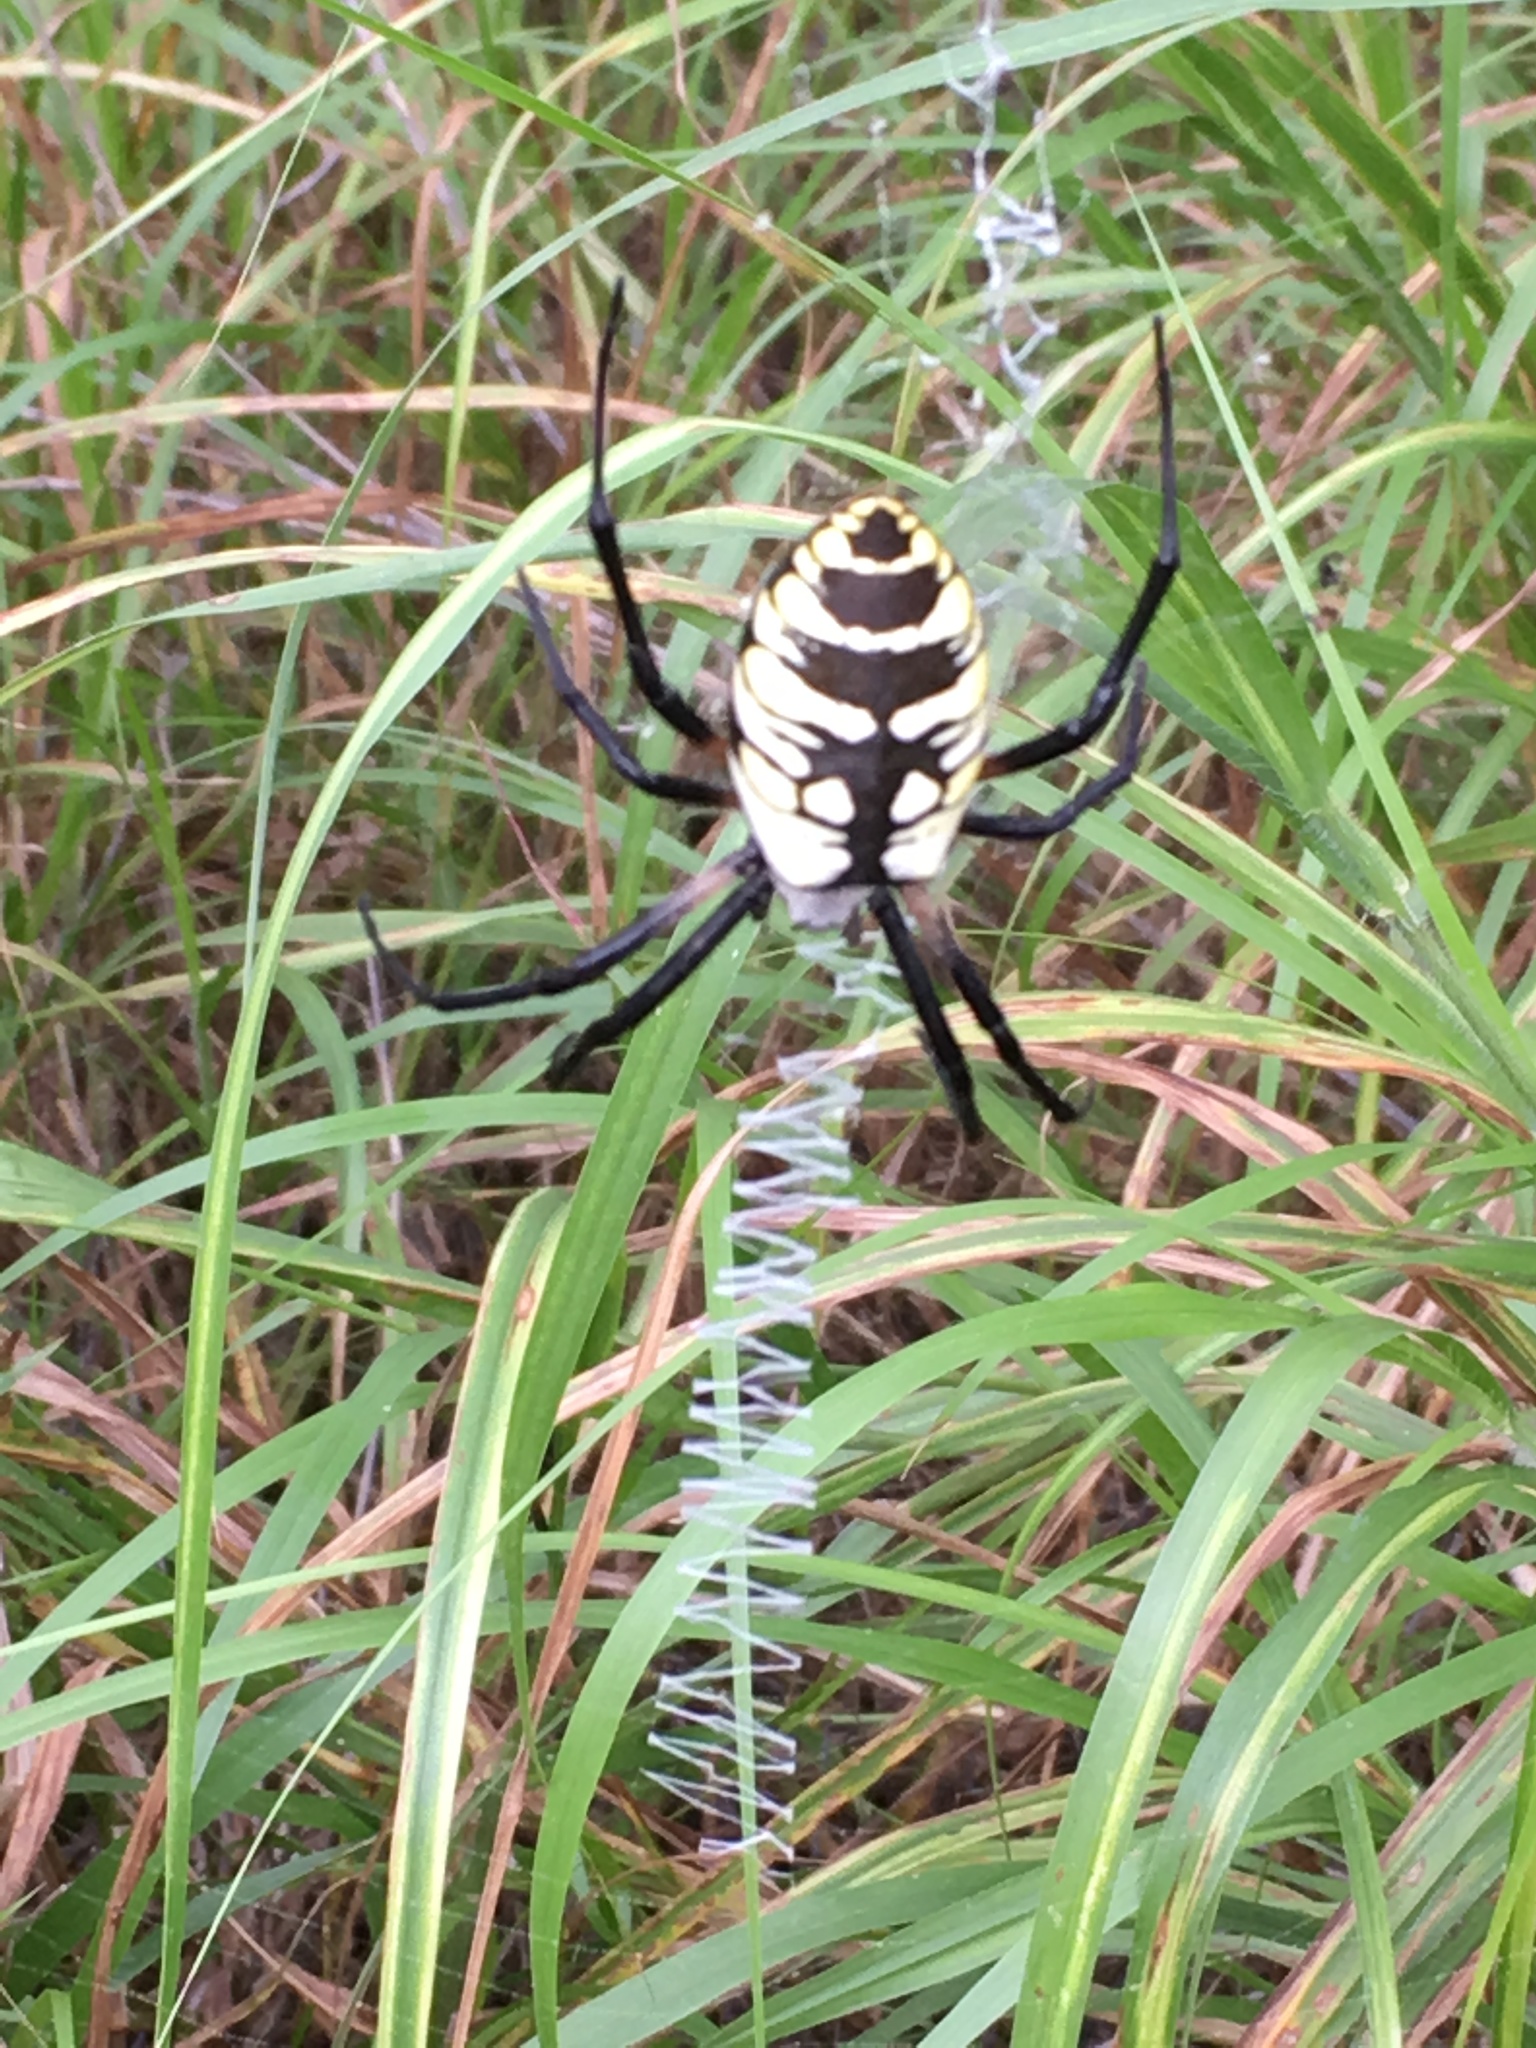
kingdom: Animalia
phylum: Arthropoda
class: Arachnida
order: Araneae
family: Araneidae
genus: Argiope
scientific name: Argiope aurantia
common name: Orb weavers
